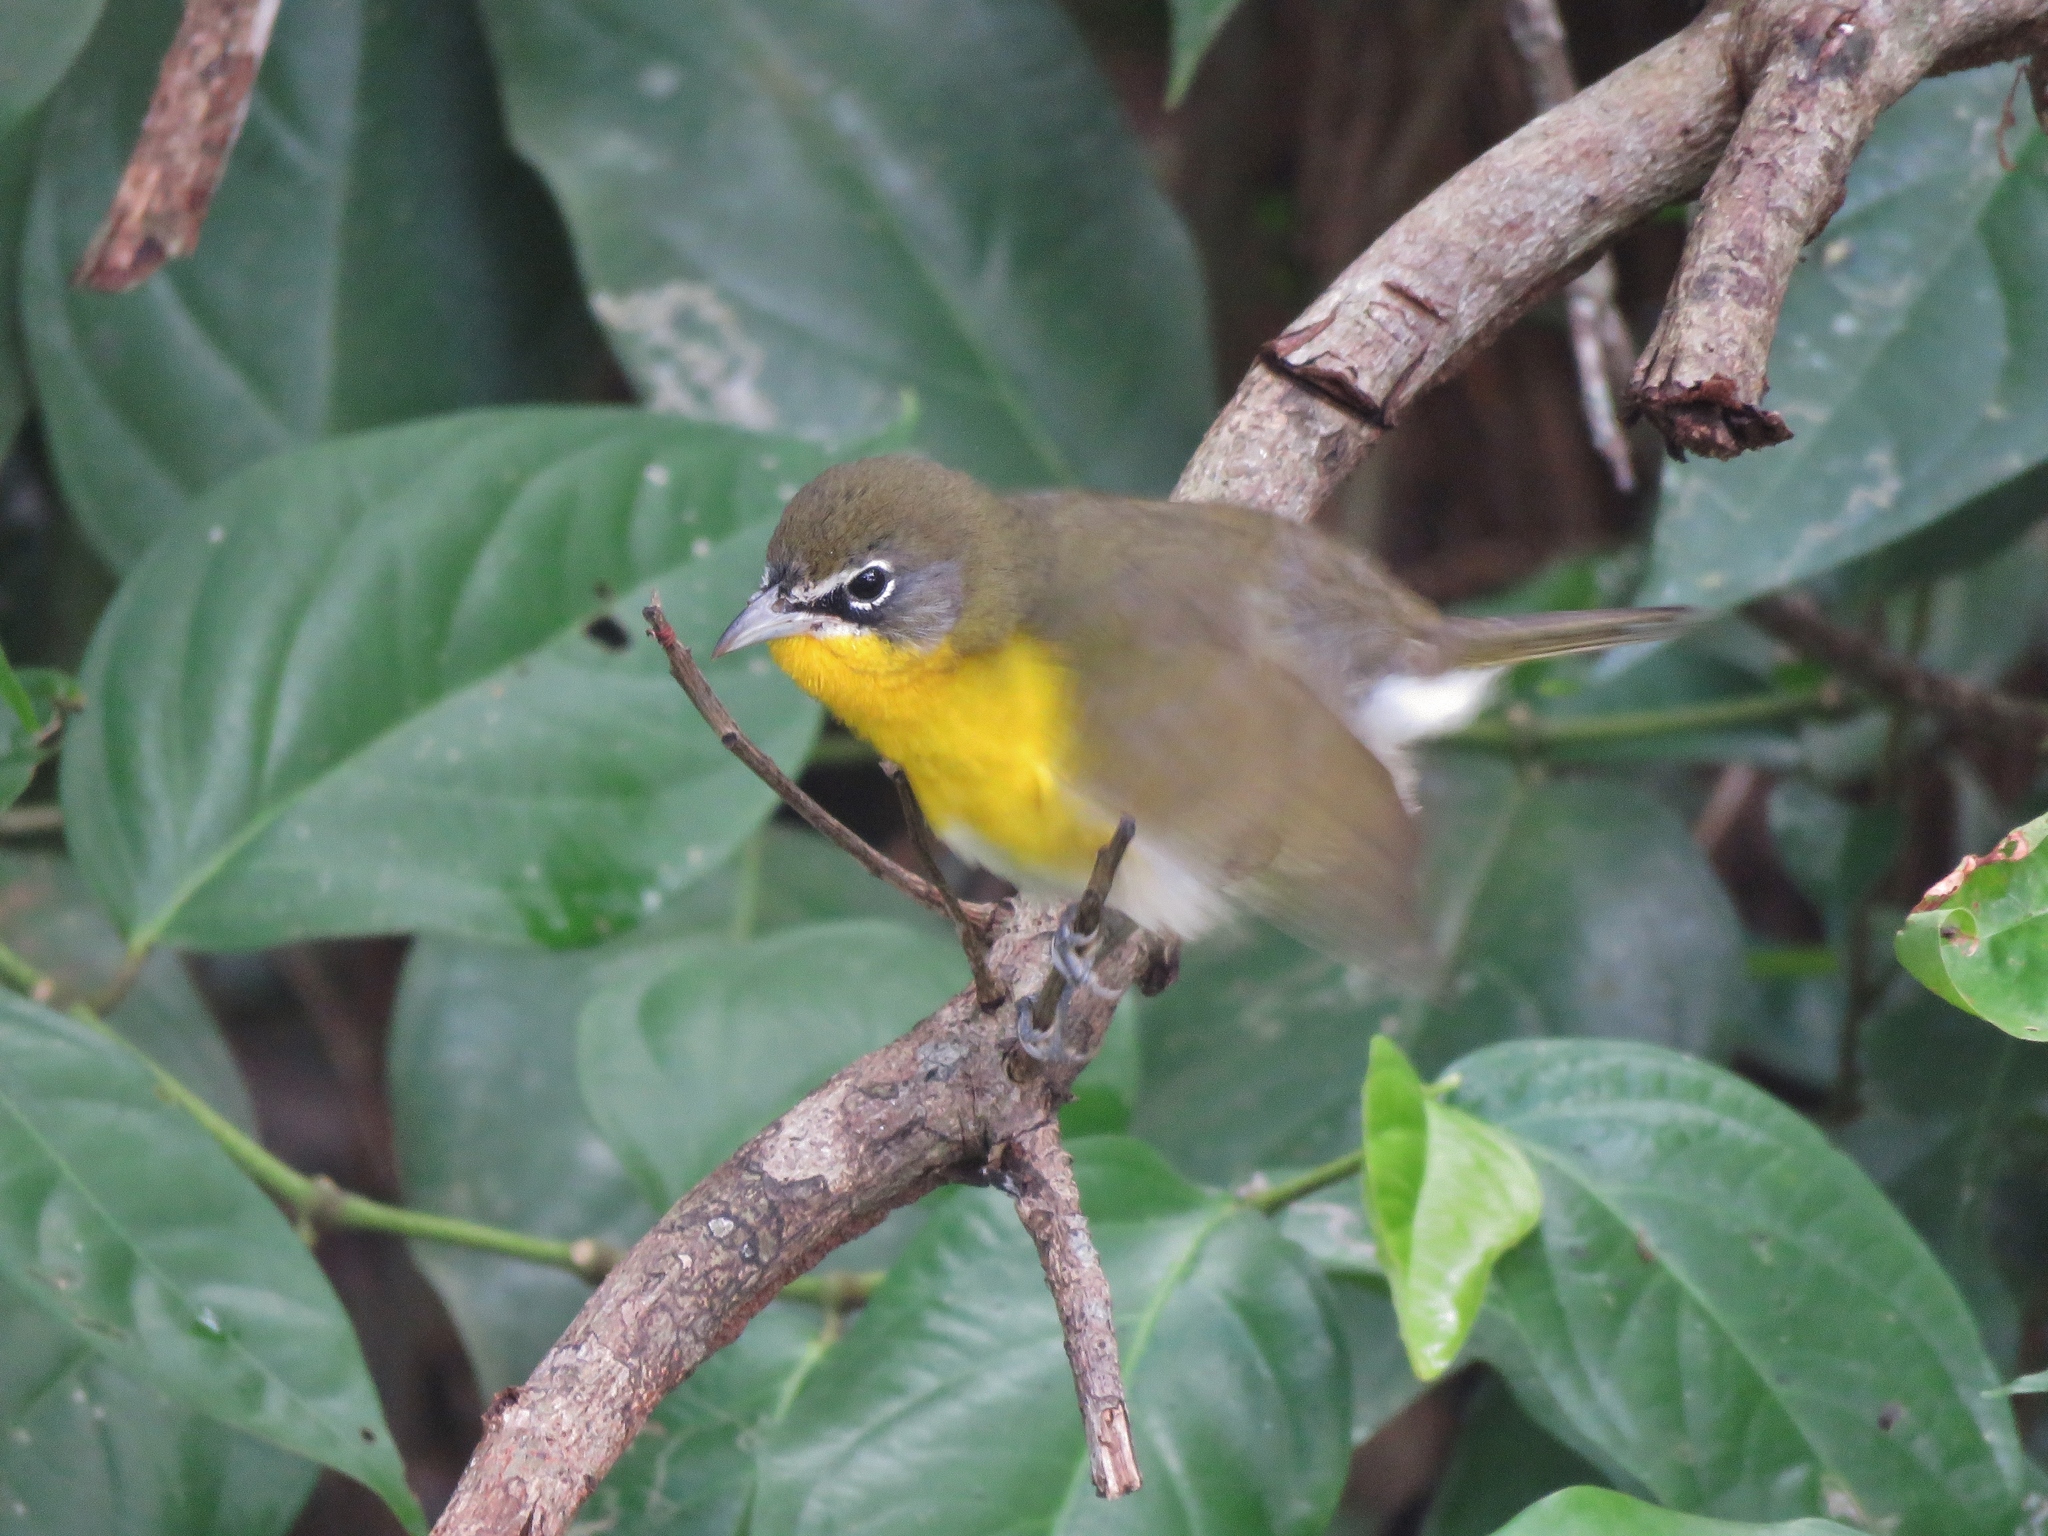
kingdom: Animalia
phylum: Chordata
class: Aves
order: Passeriformes
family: Parulidae
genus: Icteria
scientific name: Icteria virens
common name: Yellow-breasted chat
